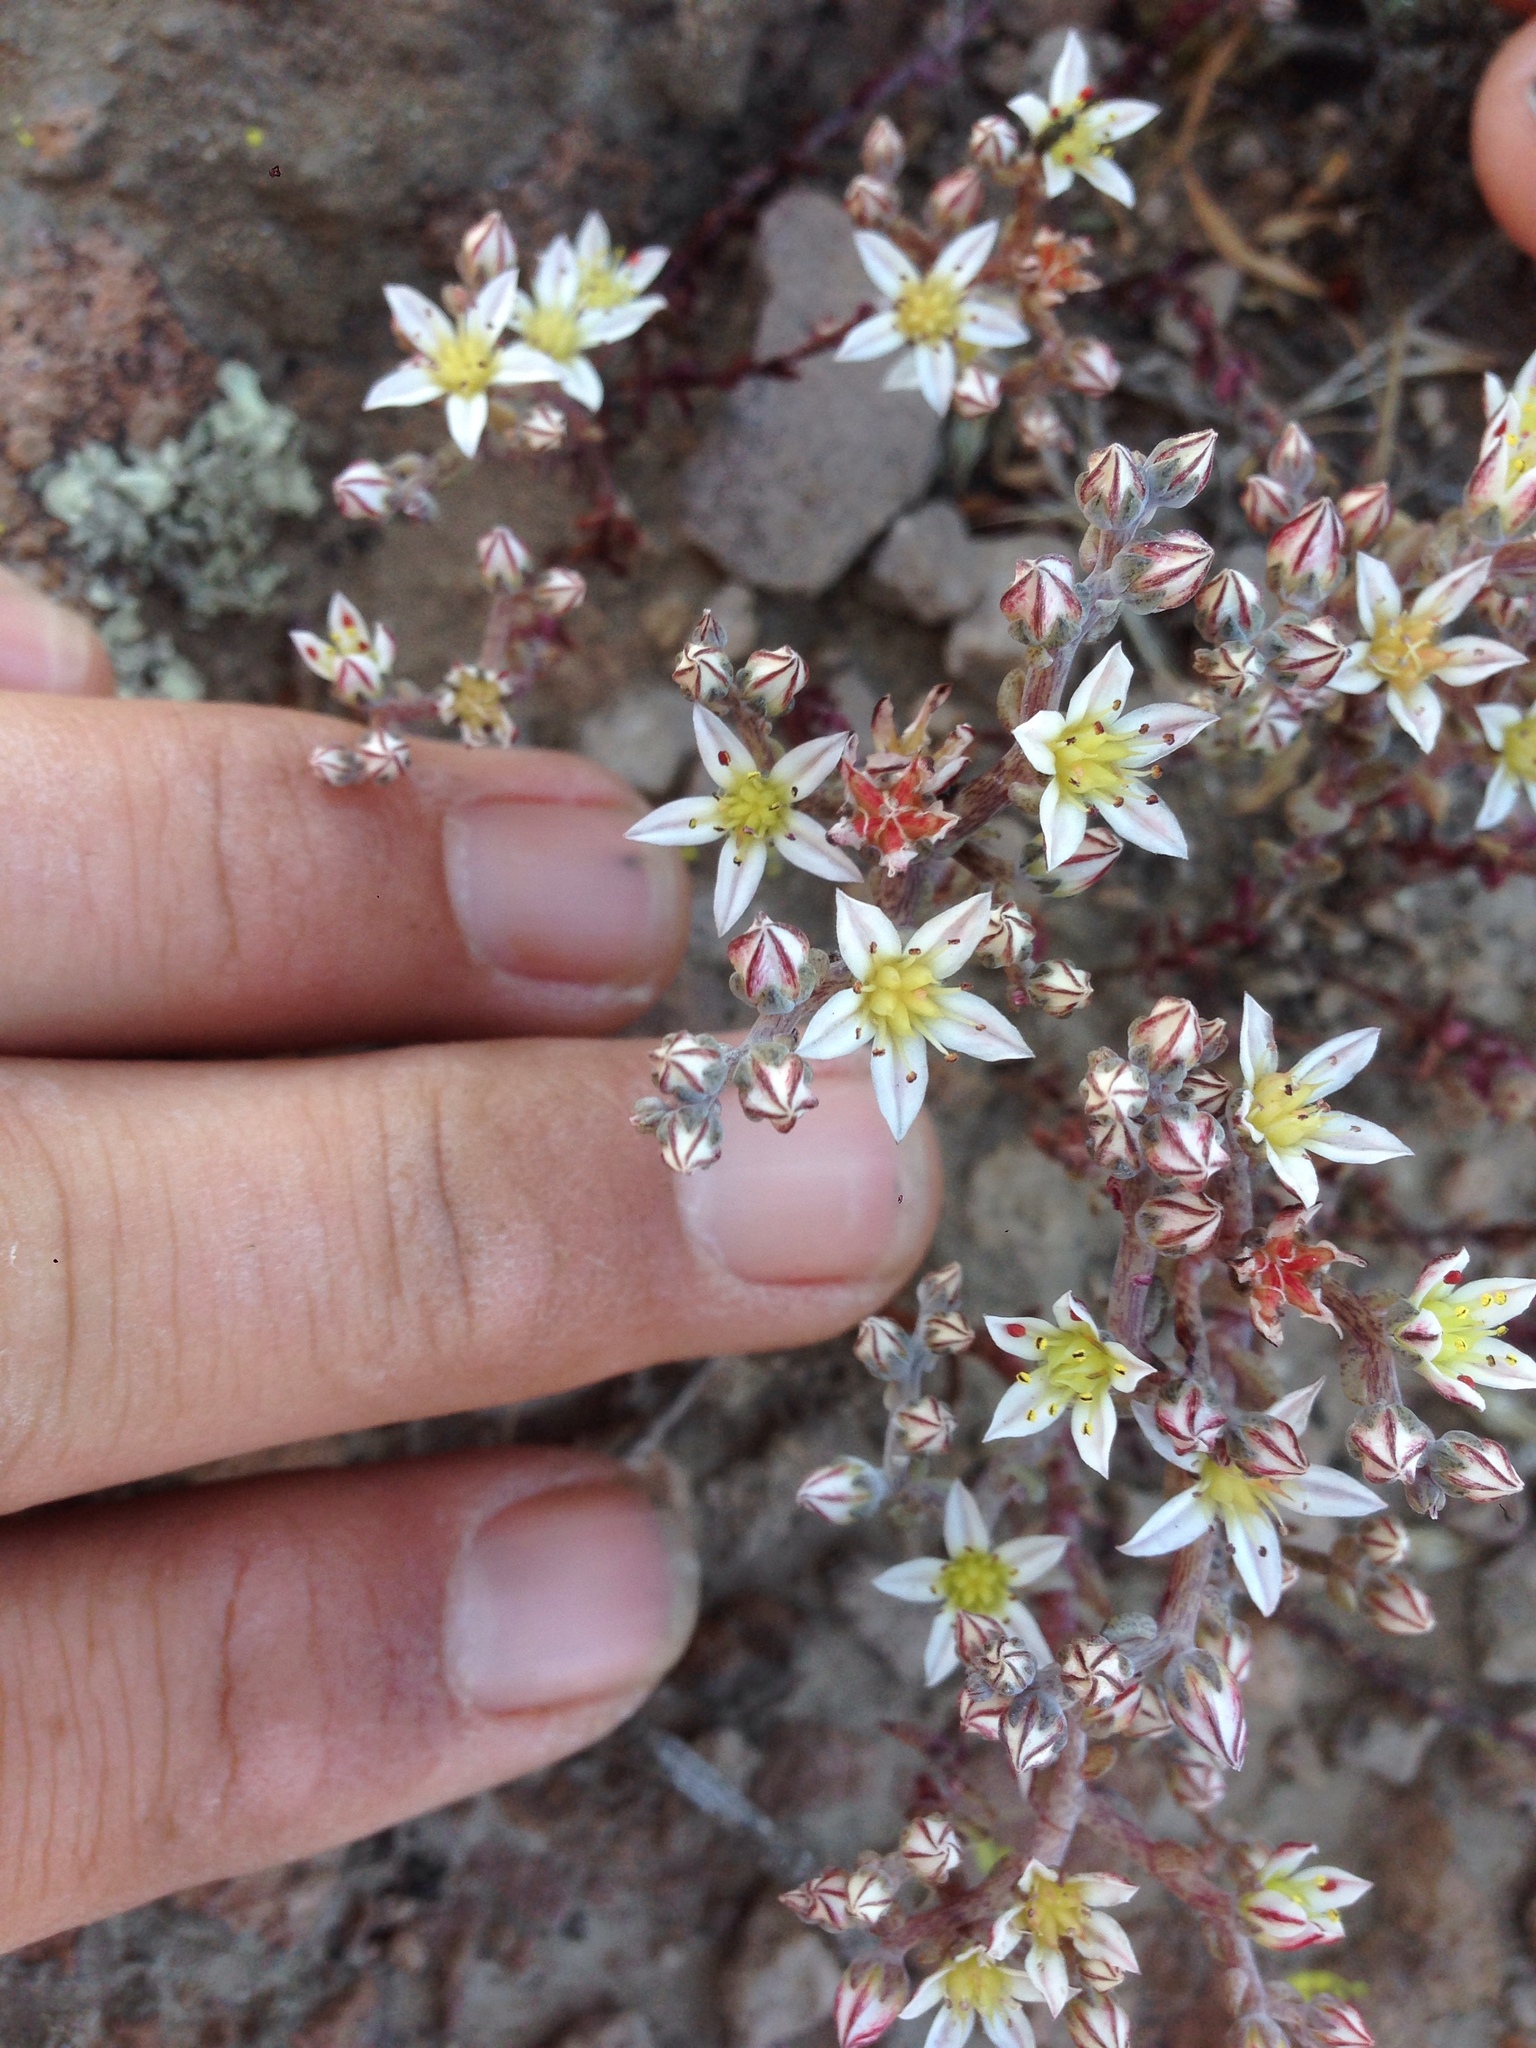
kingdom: Plantae
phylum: Tracheophyta
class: Magnoliopsida
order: Saxifragales
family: Crassulaceae
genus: Dudleya
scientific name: Dudleya blochmaniae
